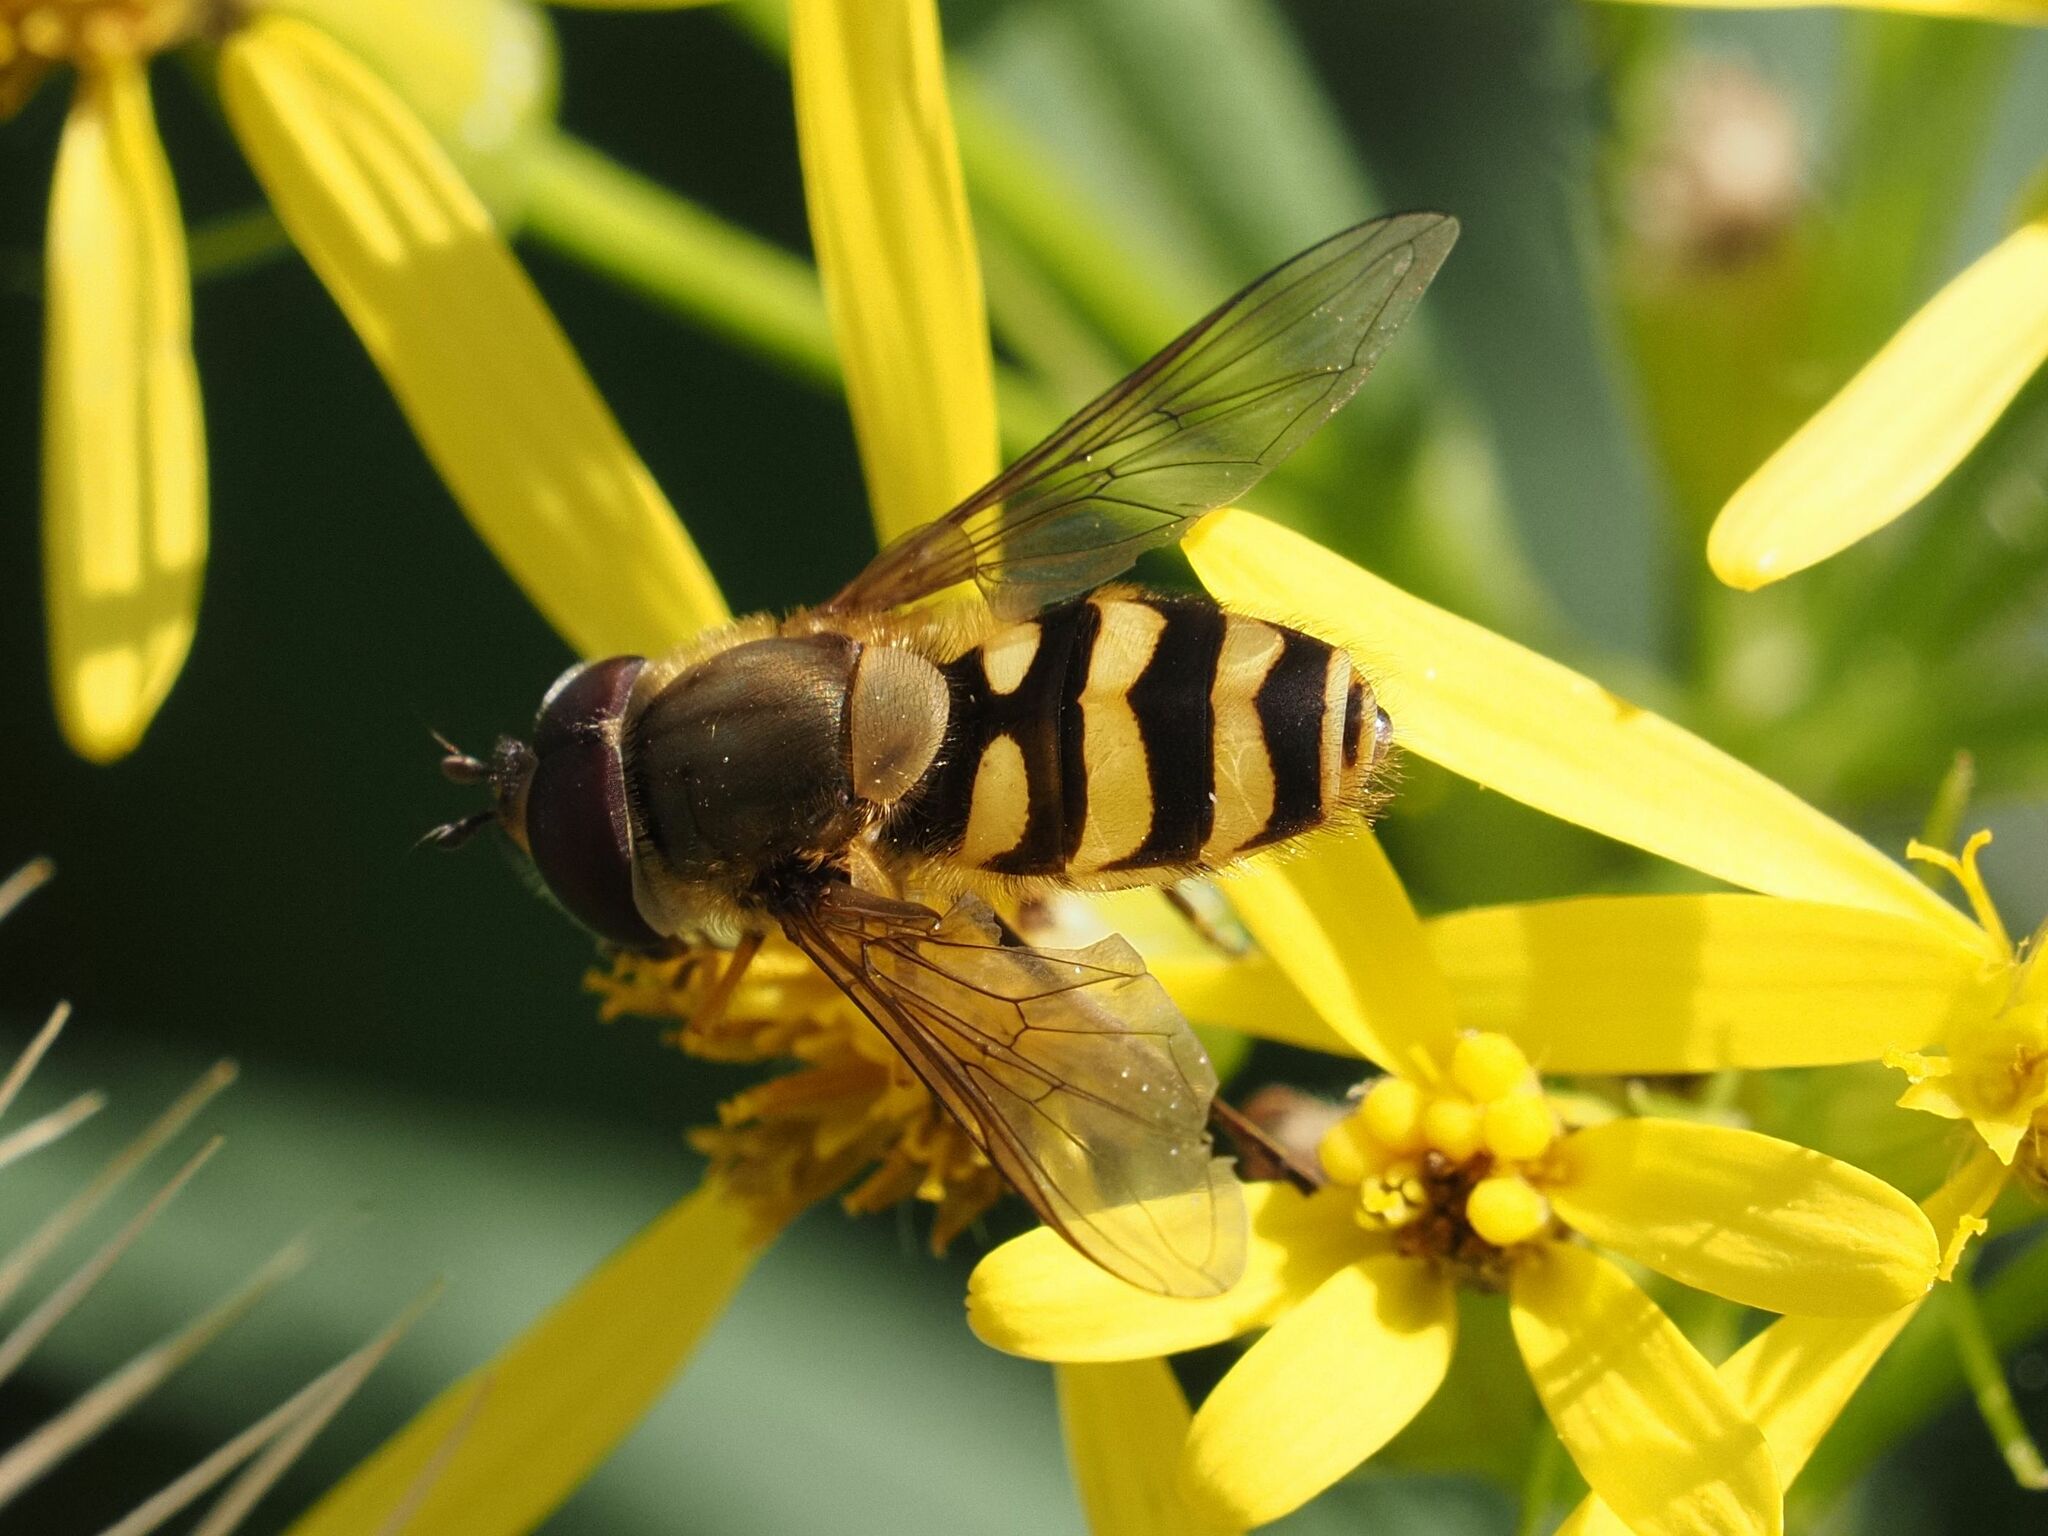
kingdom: Animalia
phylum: Arthropoda
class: Insecta
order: Diptera
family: Syrphidae
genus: Syrphus
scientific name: Syrphus torvus
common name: Hairy-eyed flower fly
